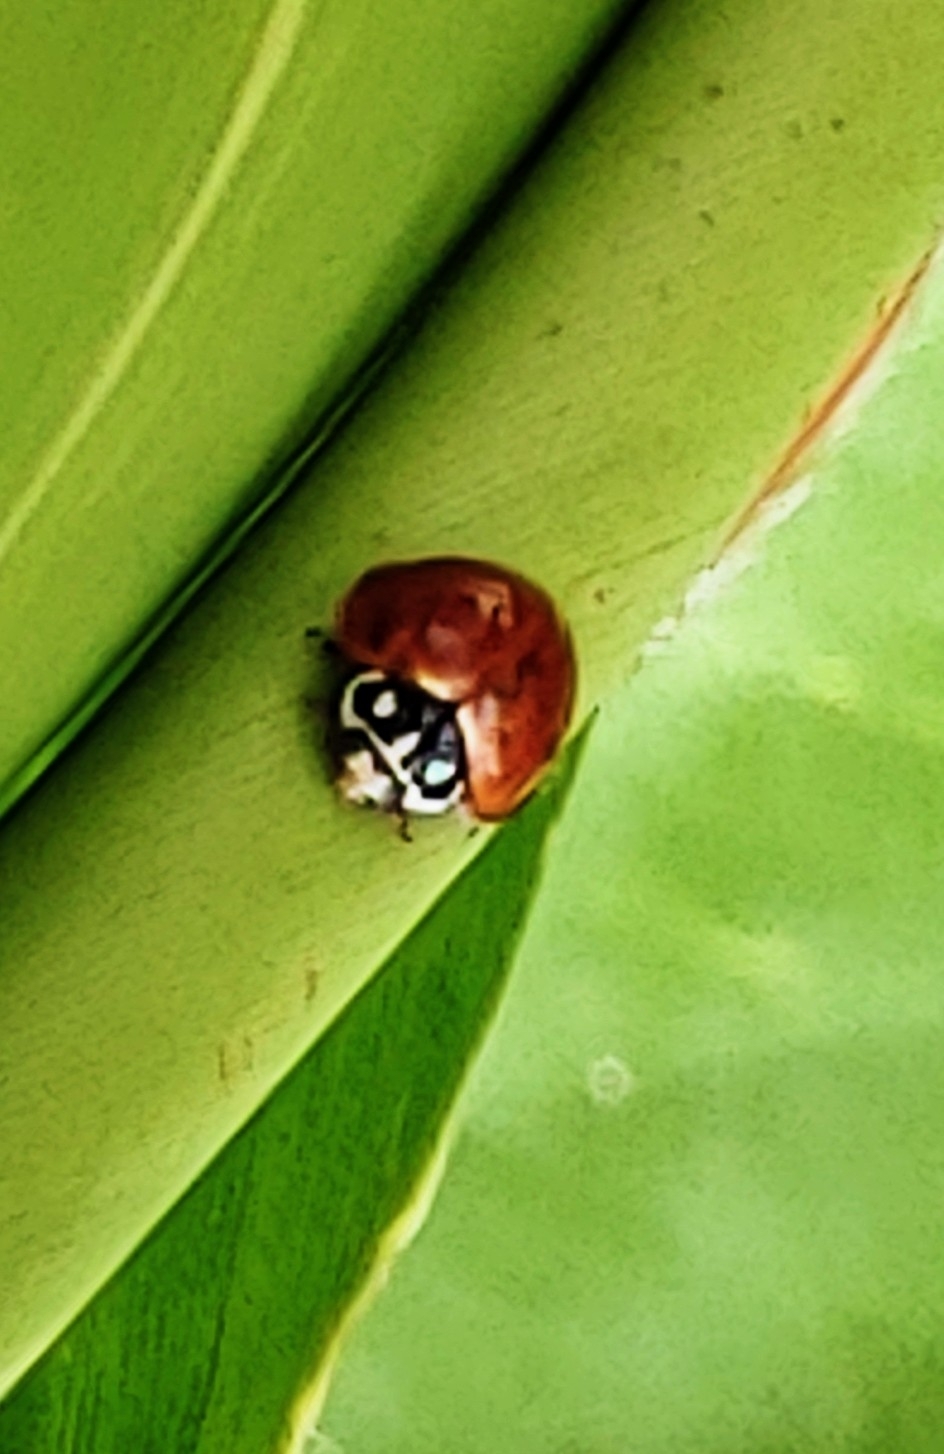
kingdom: Animalia
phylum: Arthropoda
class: Insecta
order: Coleoptera
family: Coccinellidae
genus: Cycloneda
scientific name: Cycloneda sanguinea
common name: Ladybird beetle
